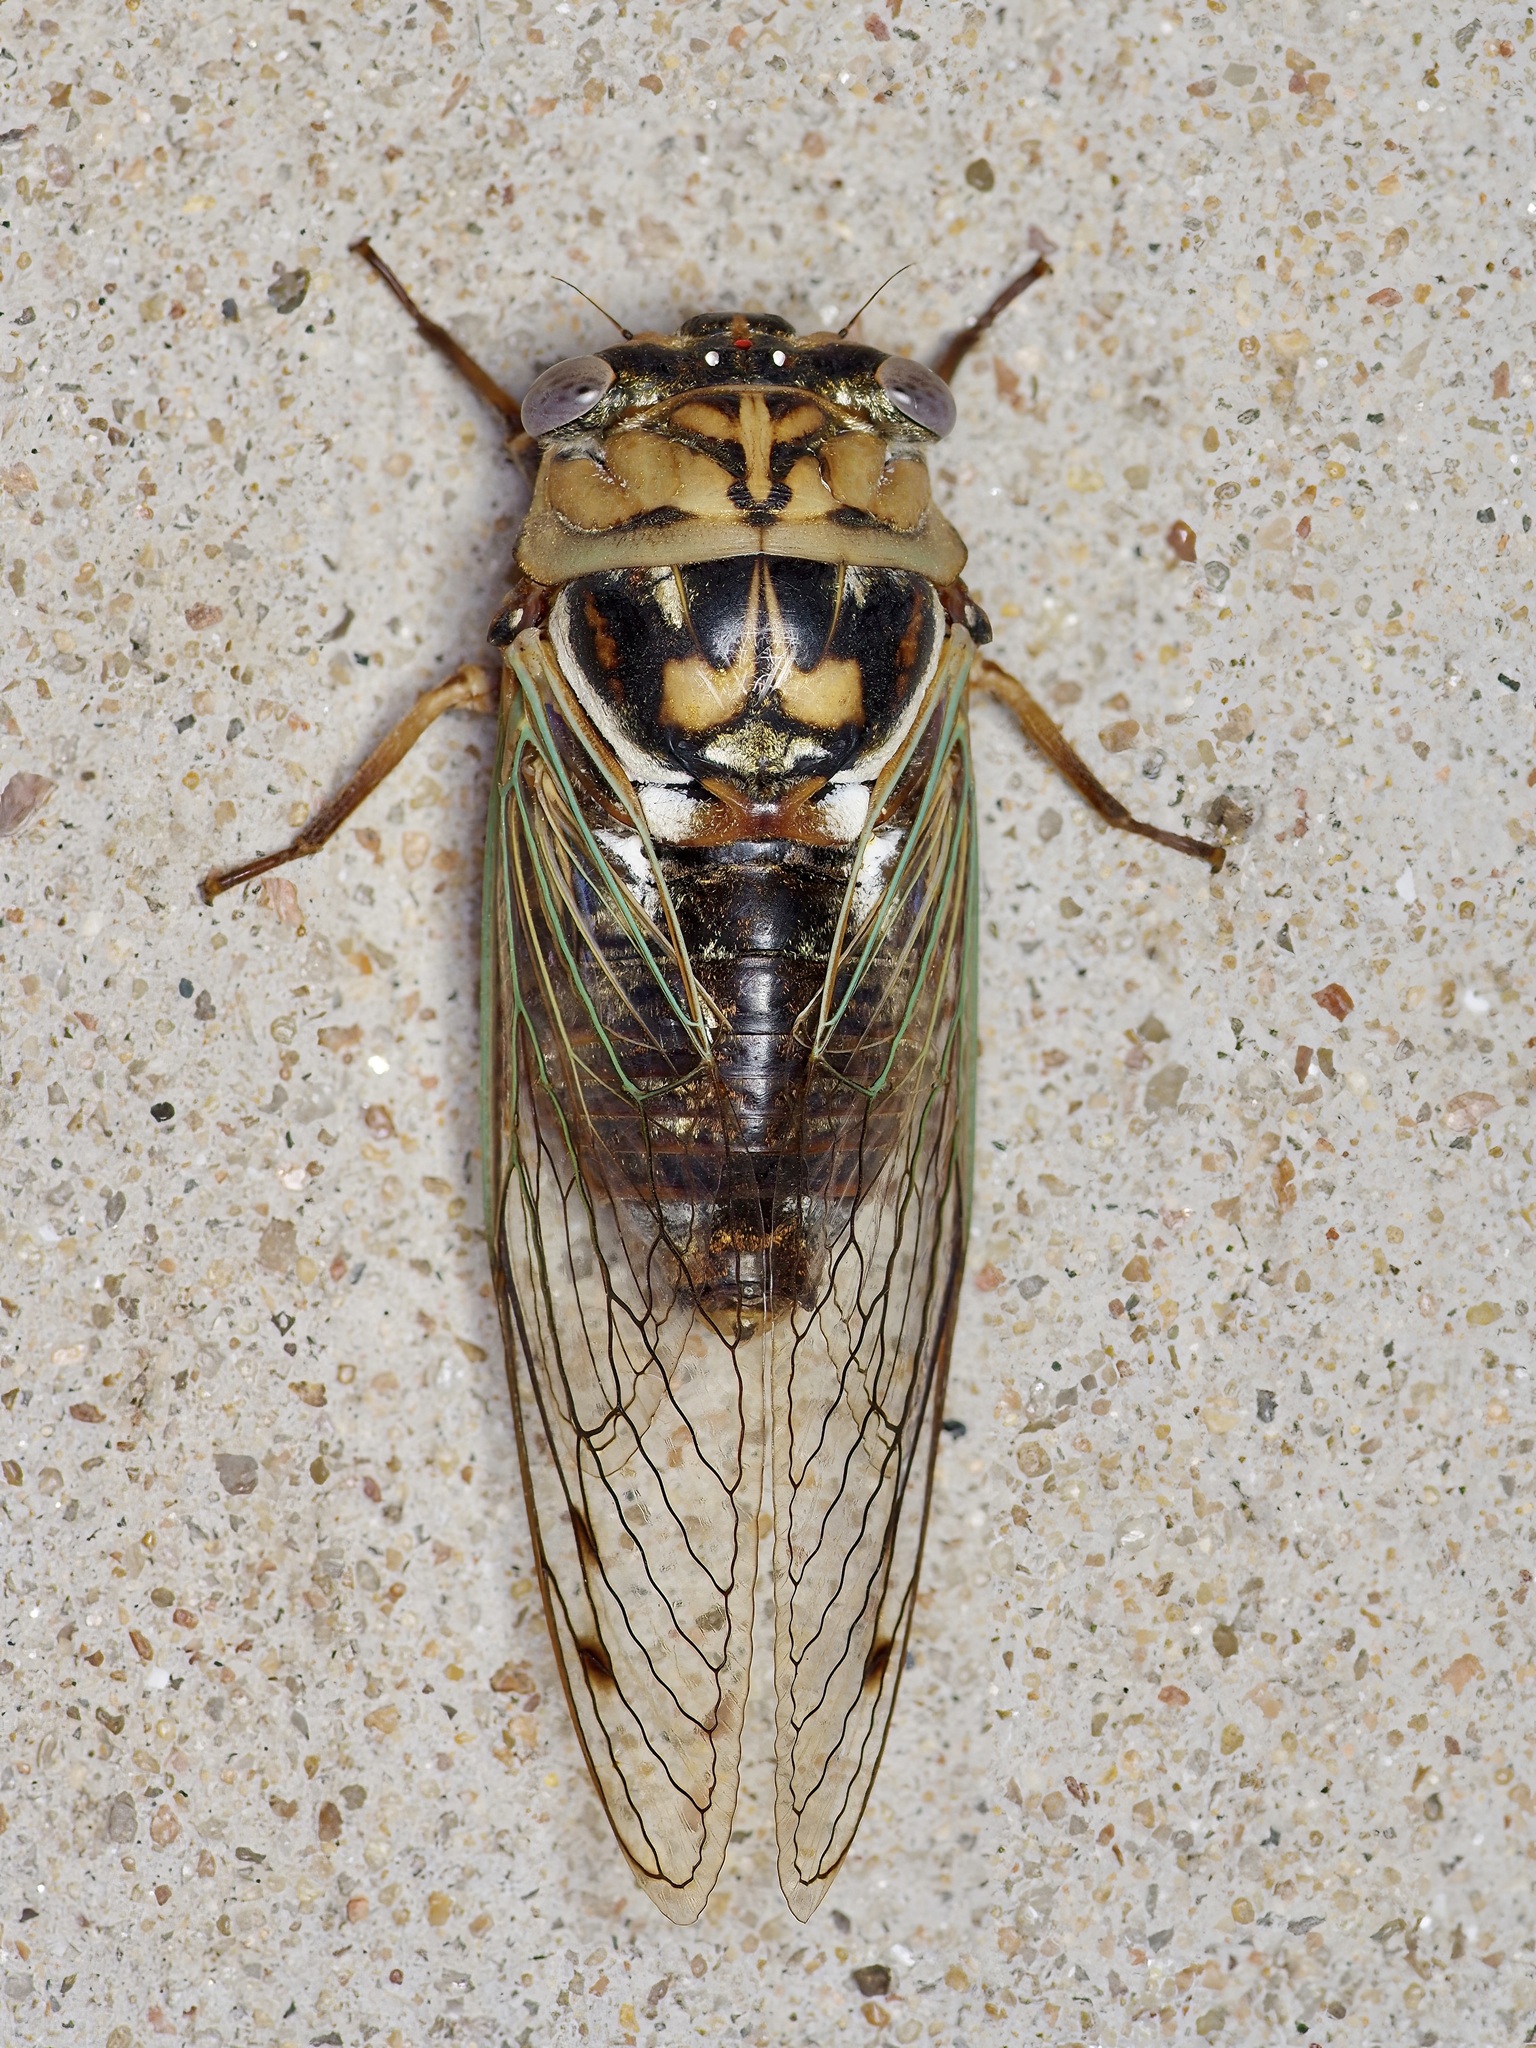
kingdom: Animalia
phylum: Arthropoda
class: Insecta
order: Hemiptera
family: Cicadidae
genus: Megatibicen
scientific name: Megatibicen resh
